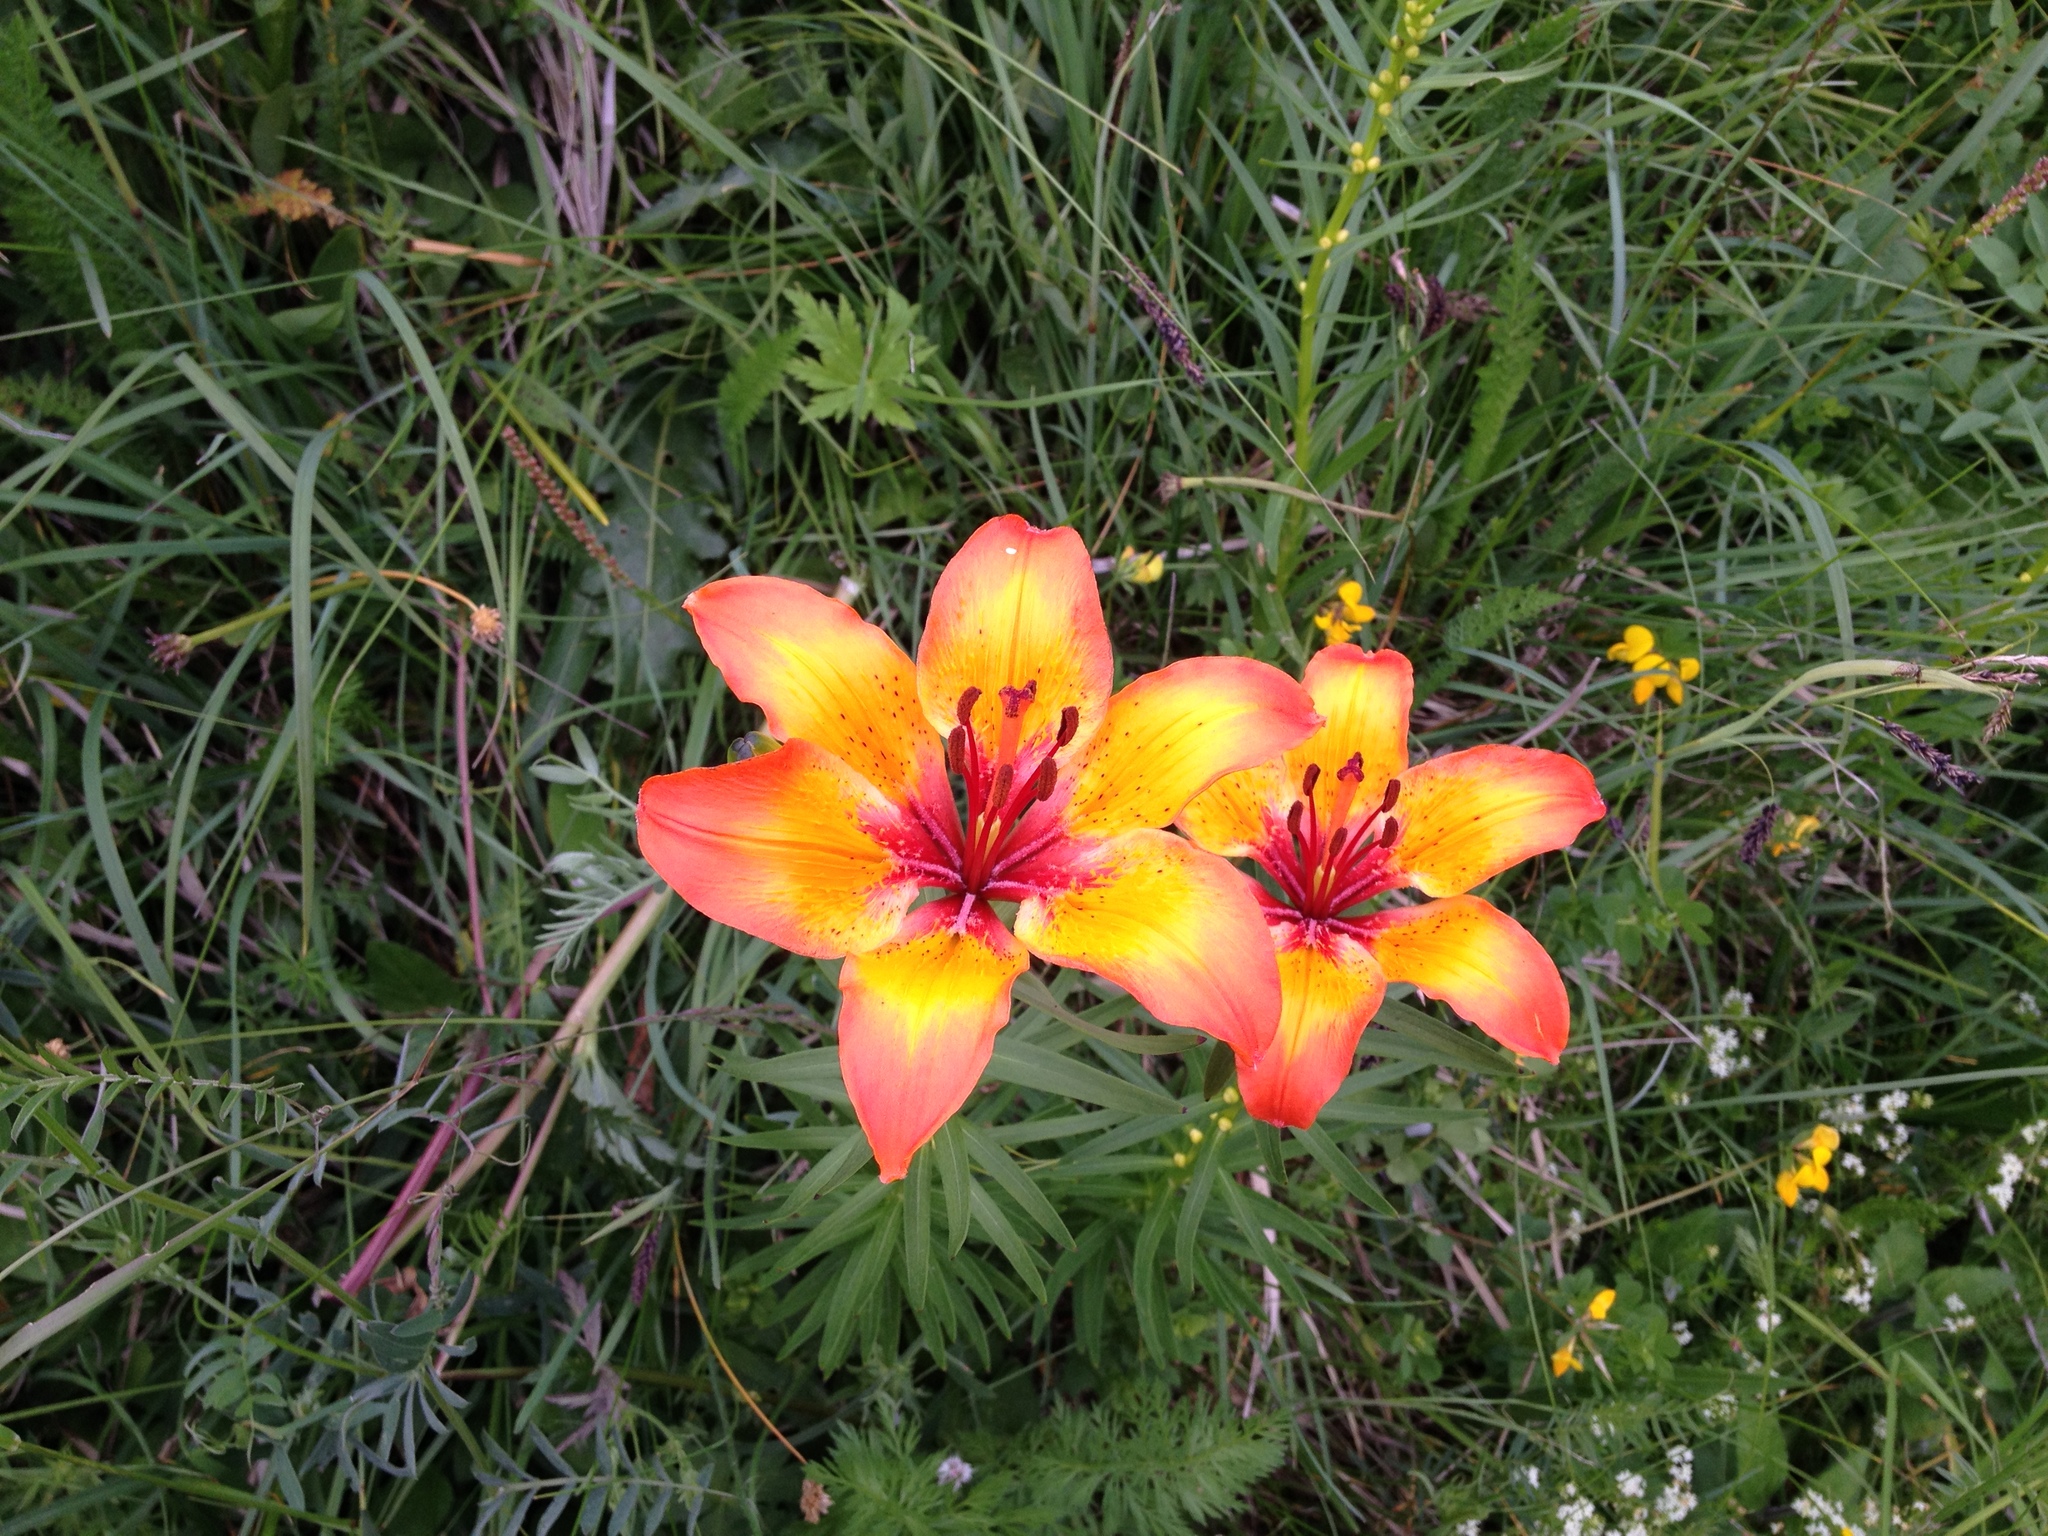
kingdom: Plantae
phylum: Tracheophyta
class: Liliopsida
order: Liliales
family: Liliaceae
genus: Lilium
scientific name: Lilium bulbiferum
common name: Orange lily
